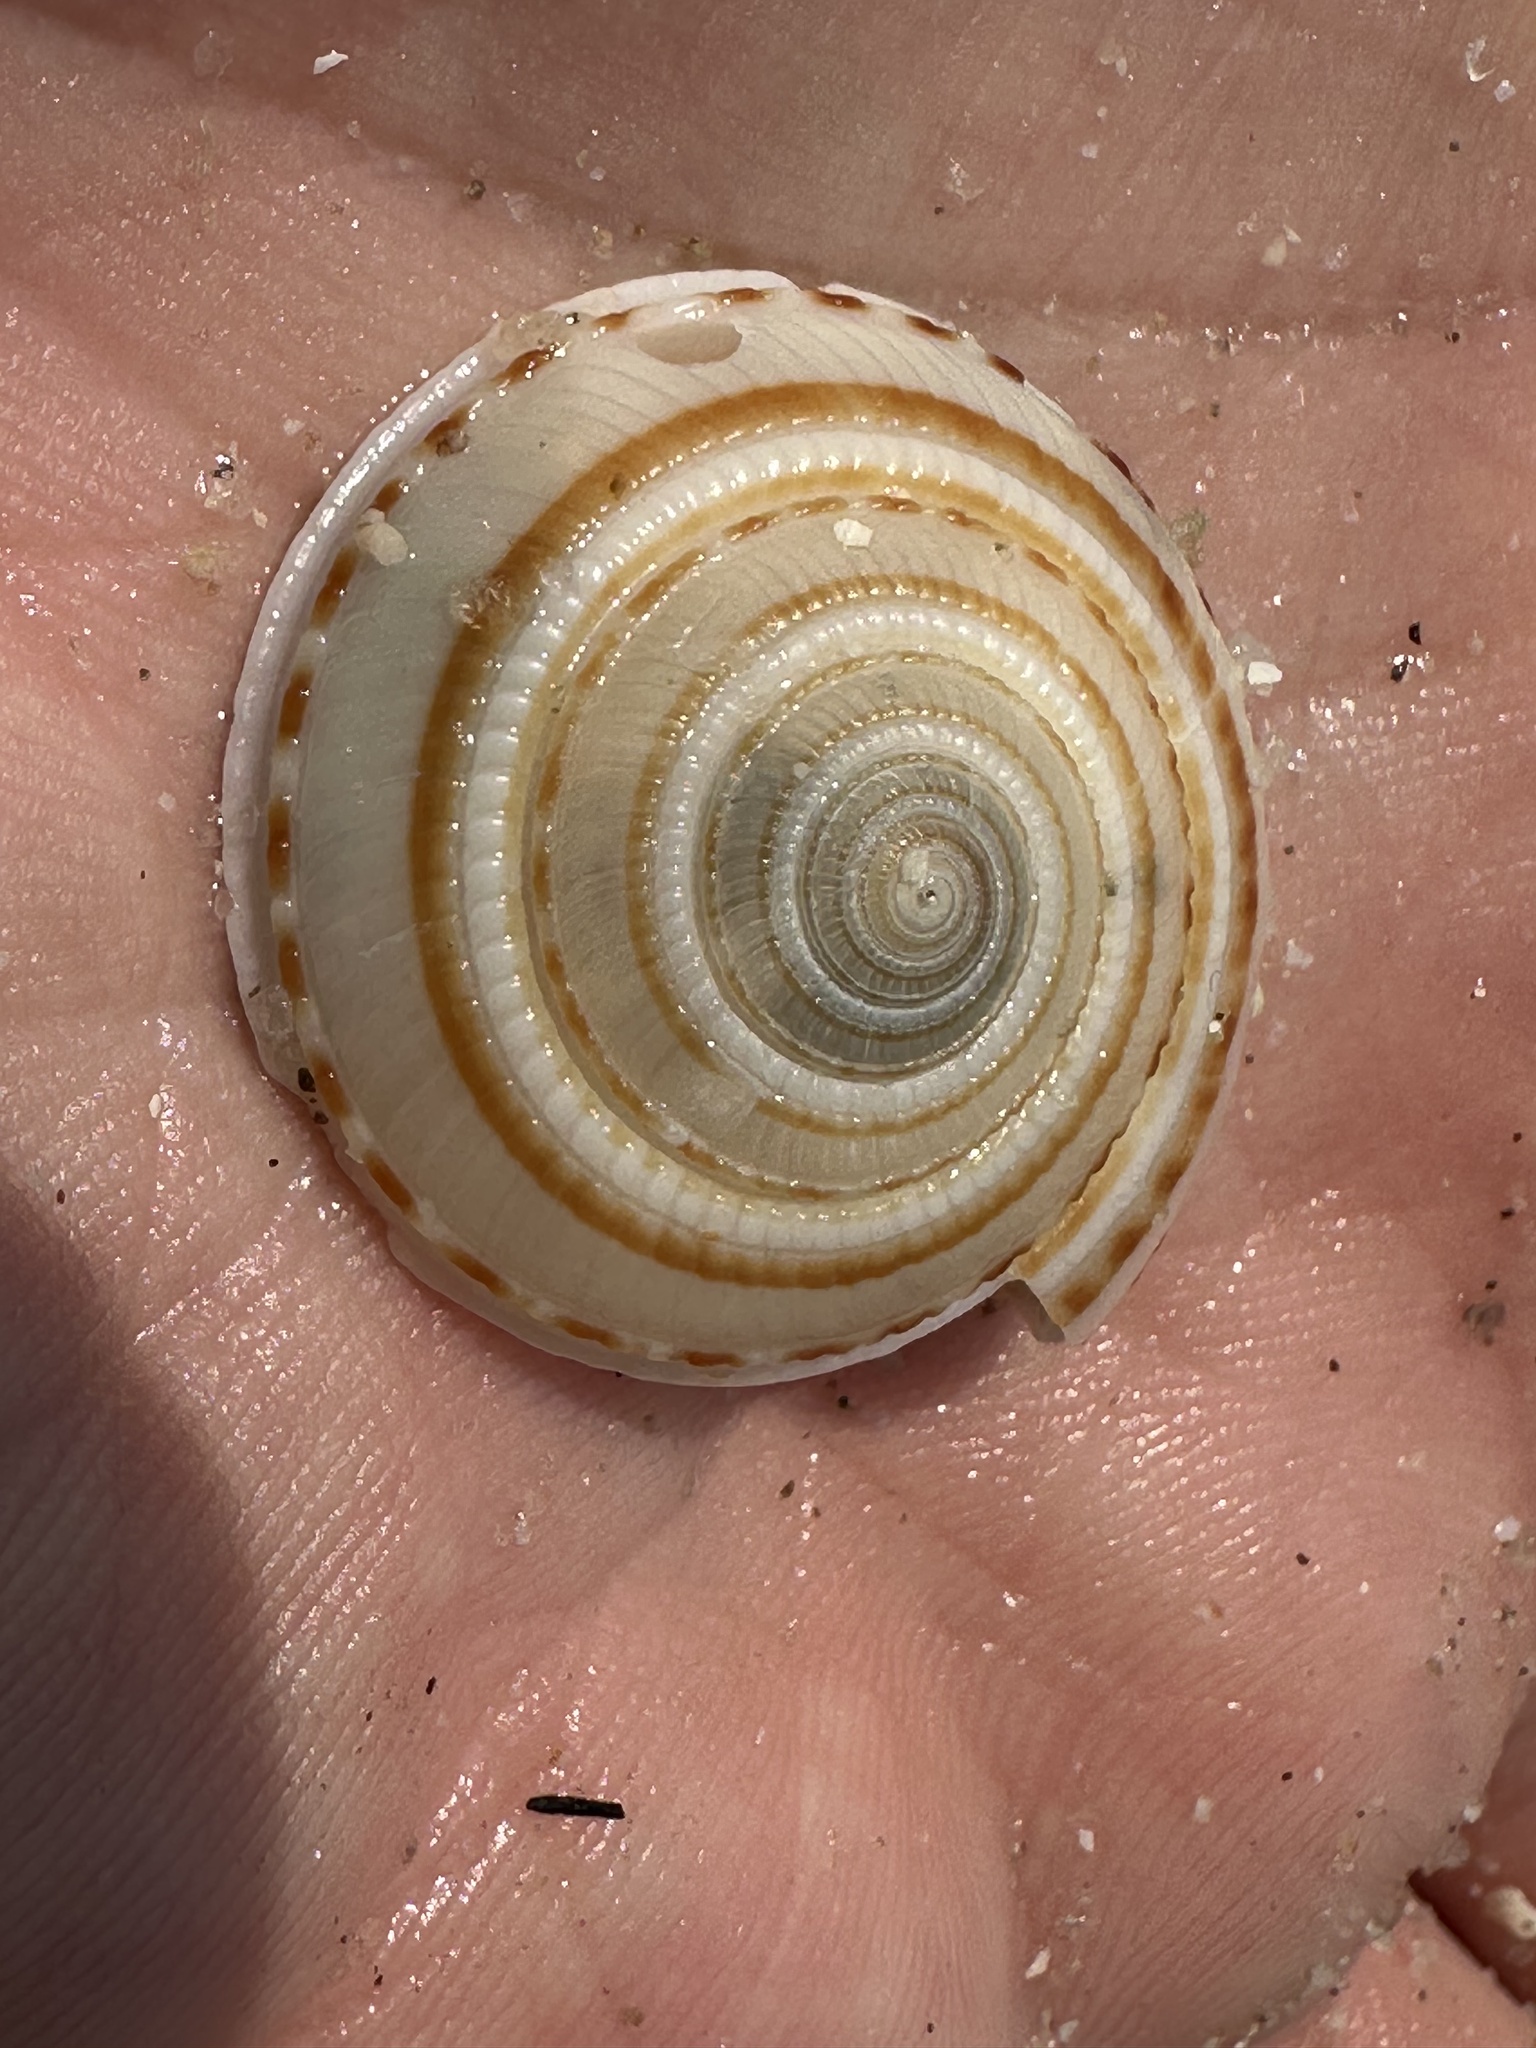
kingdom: Animalia
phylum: Mollusca
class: Gastropoda
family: Architectonicidae
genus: Architectonica
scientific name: Architectonica perspectiva
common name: European sundial snail
